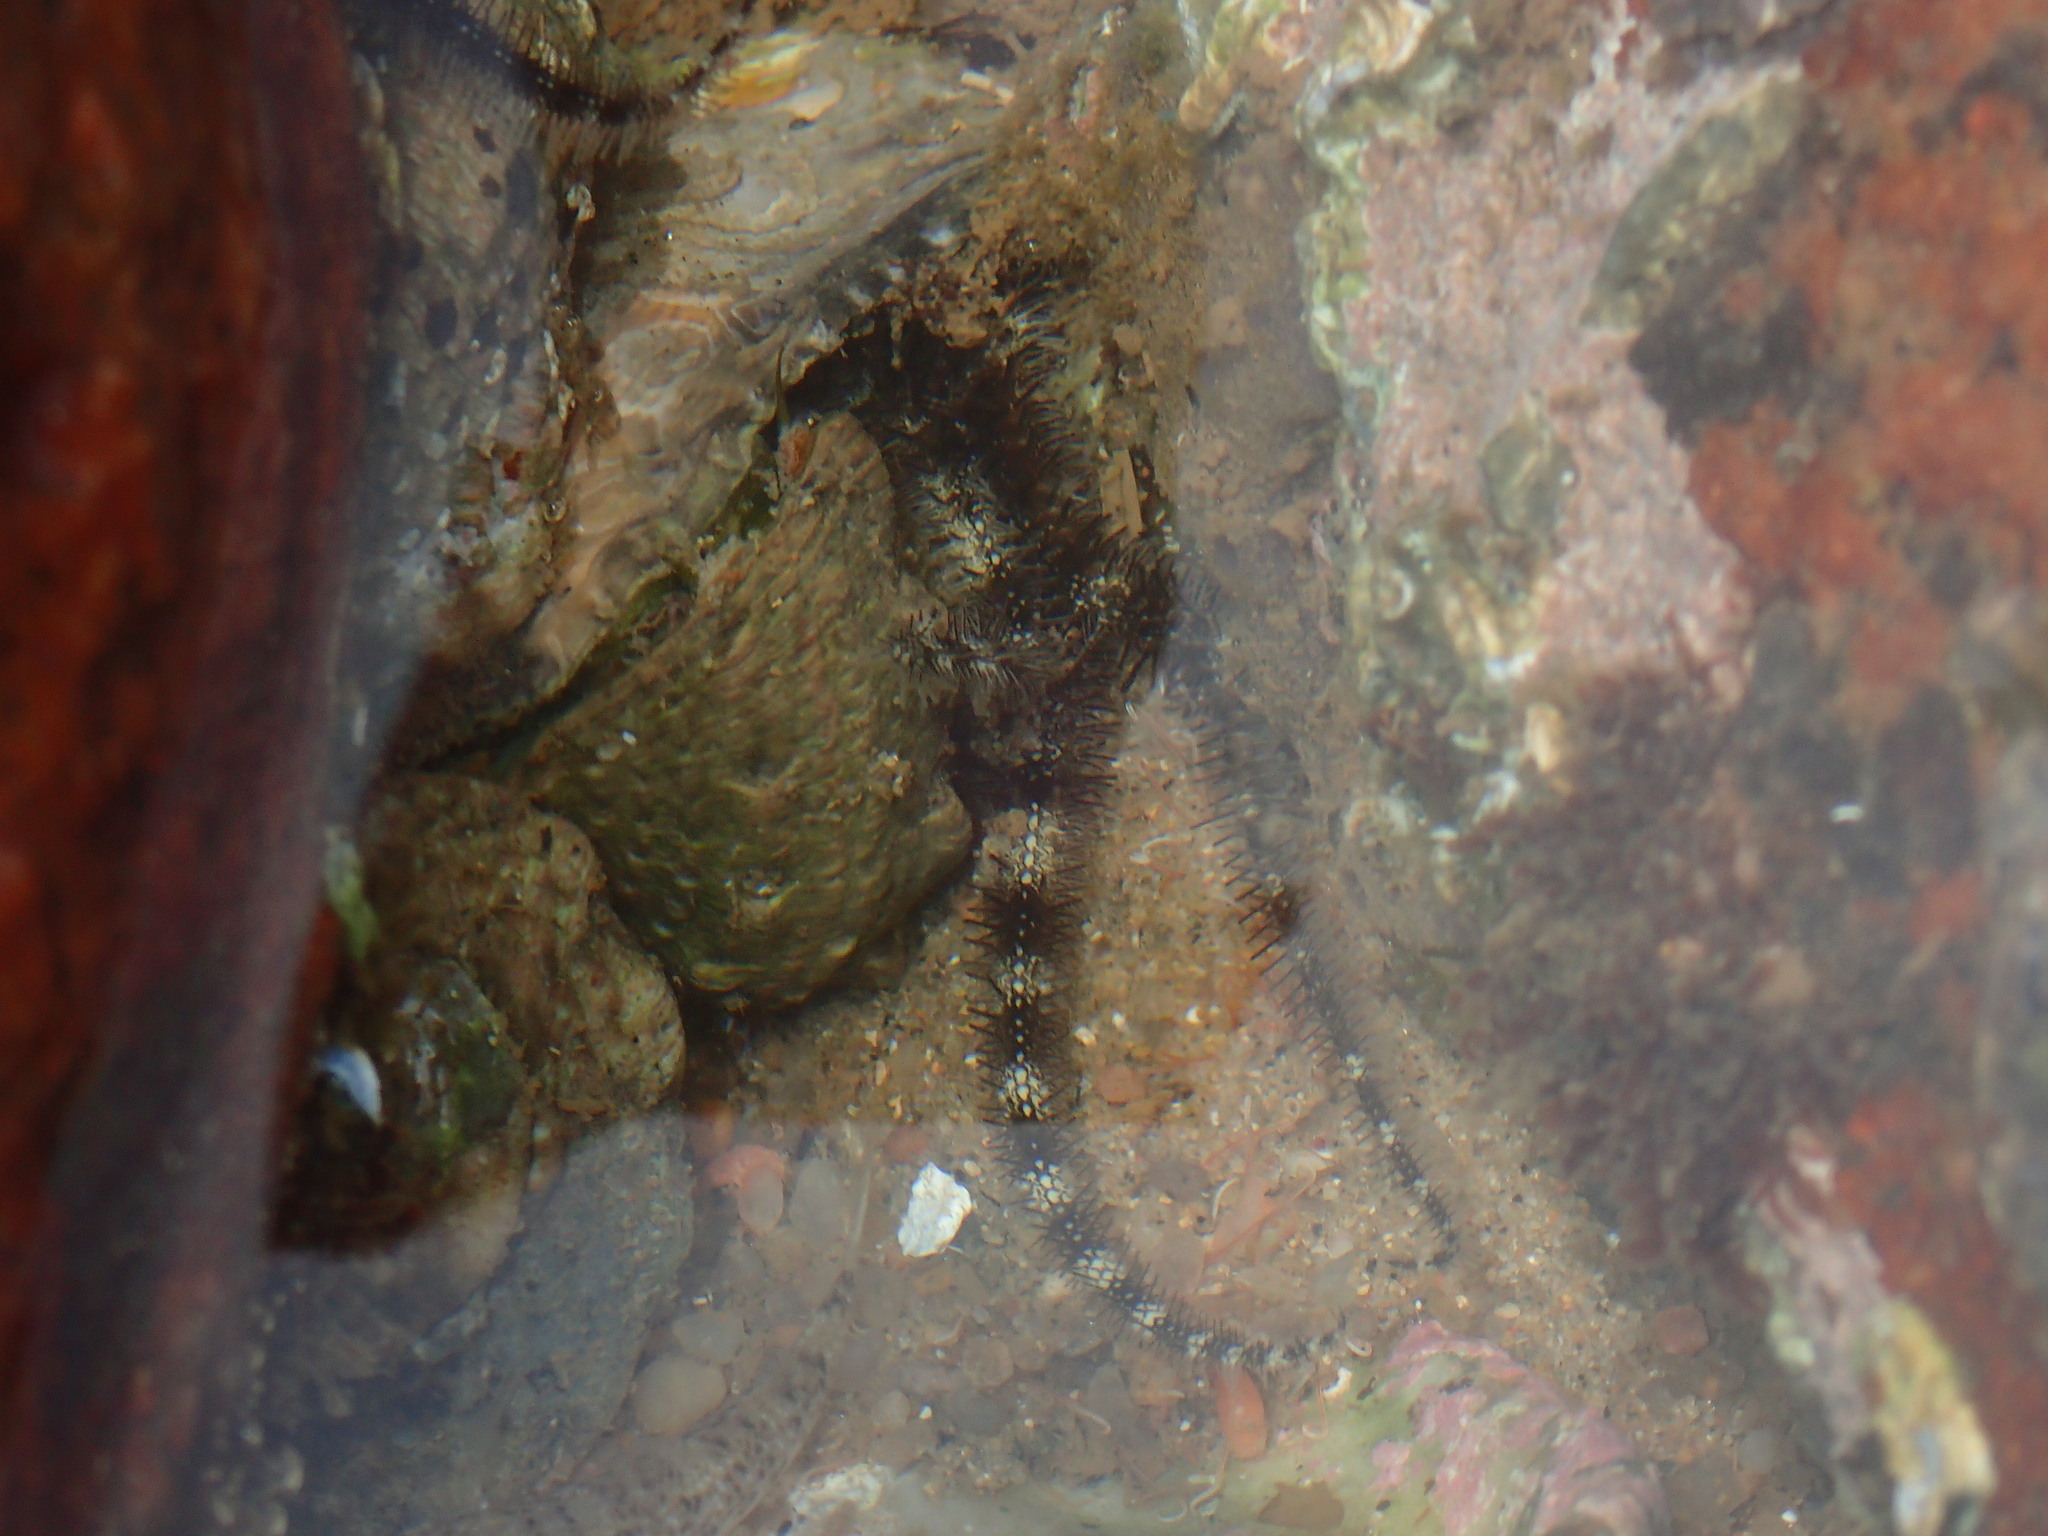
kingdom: Animalia
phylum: Echinodermata
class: Ophiuroidea
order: Ophiacanthida
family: Ophiocomidae
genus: Ophiocoma
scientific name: Ophiocoma scolopendrina
